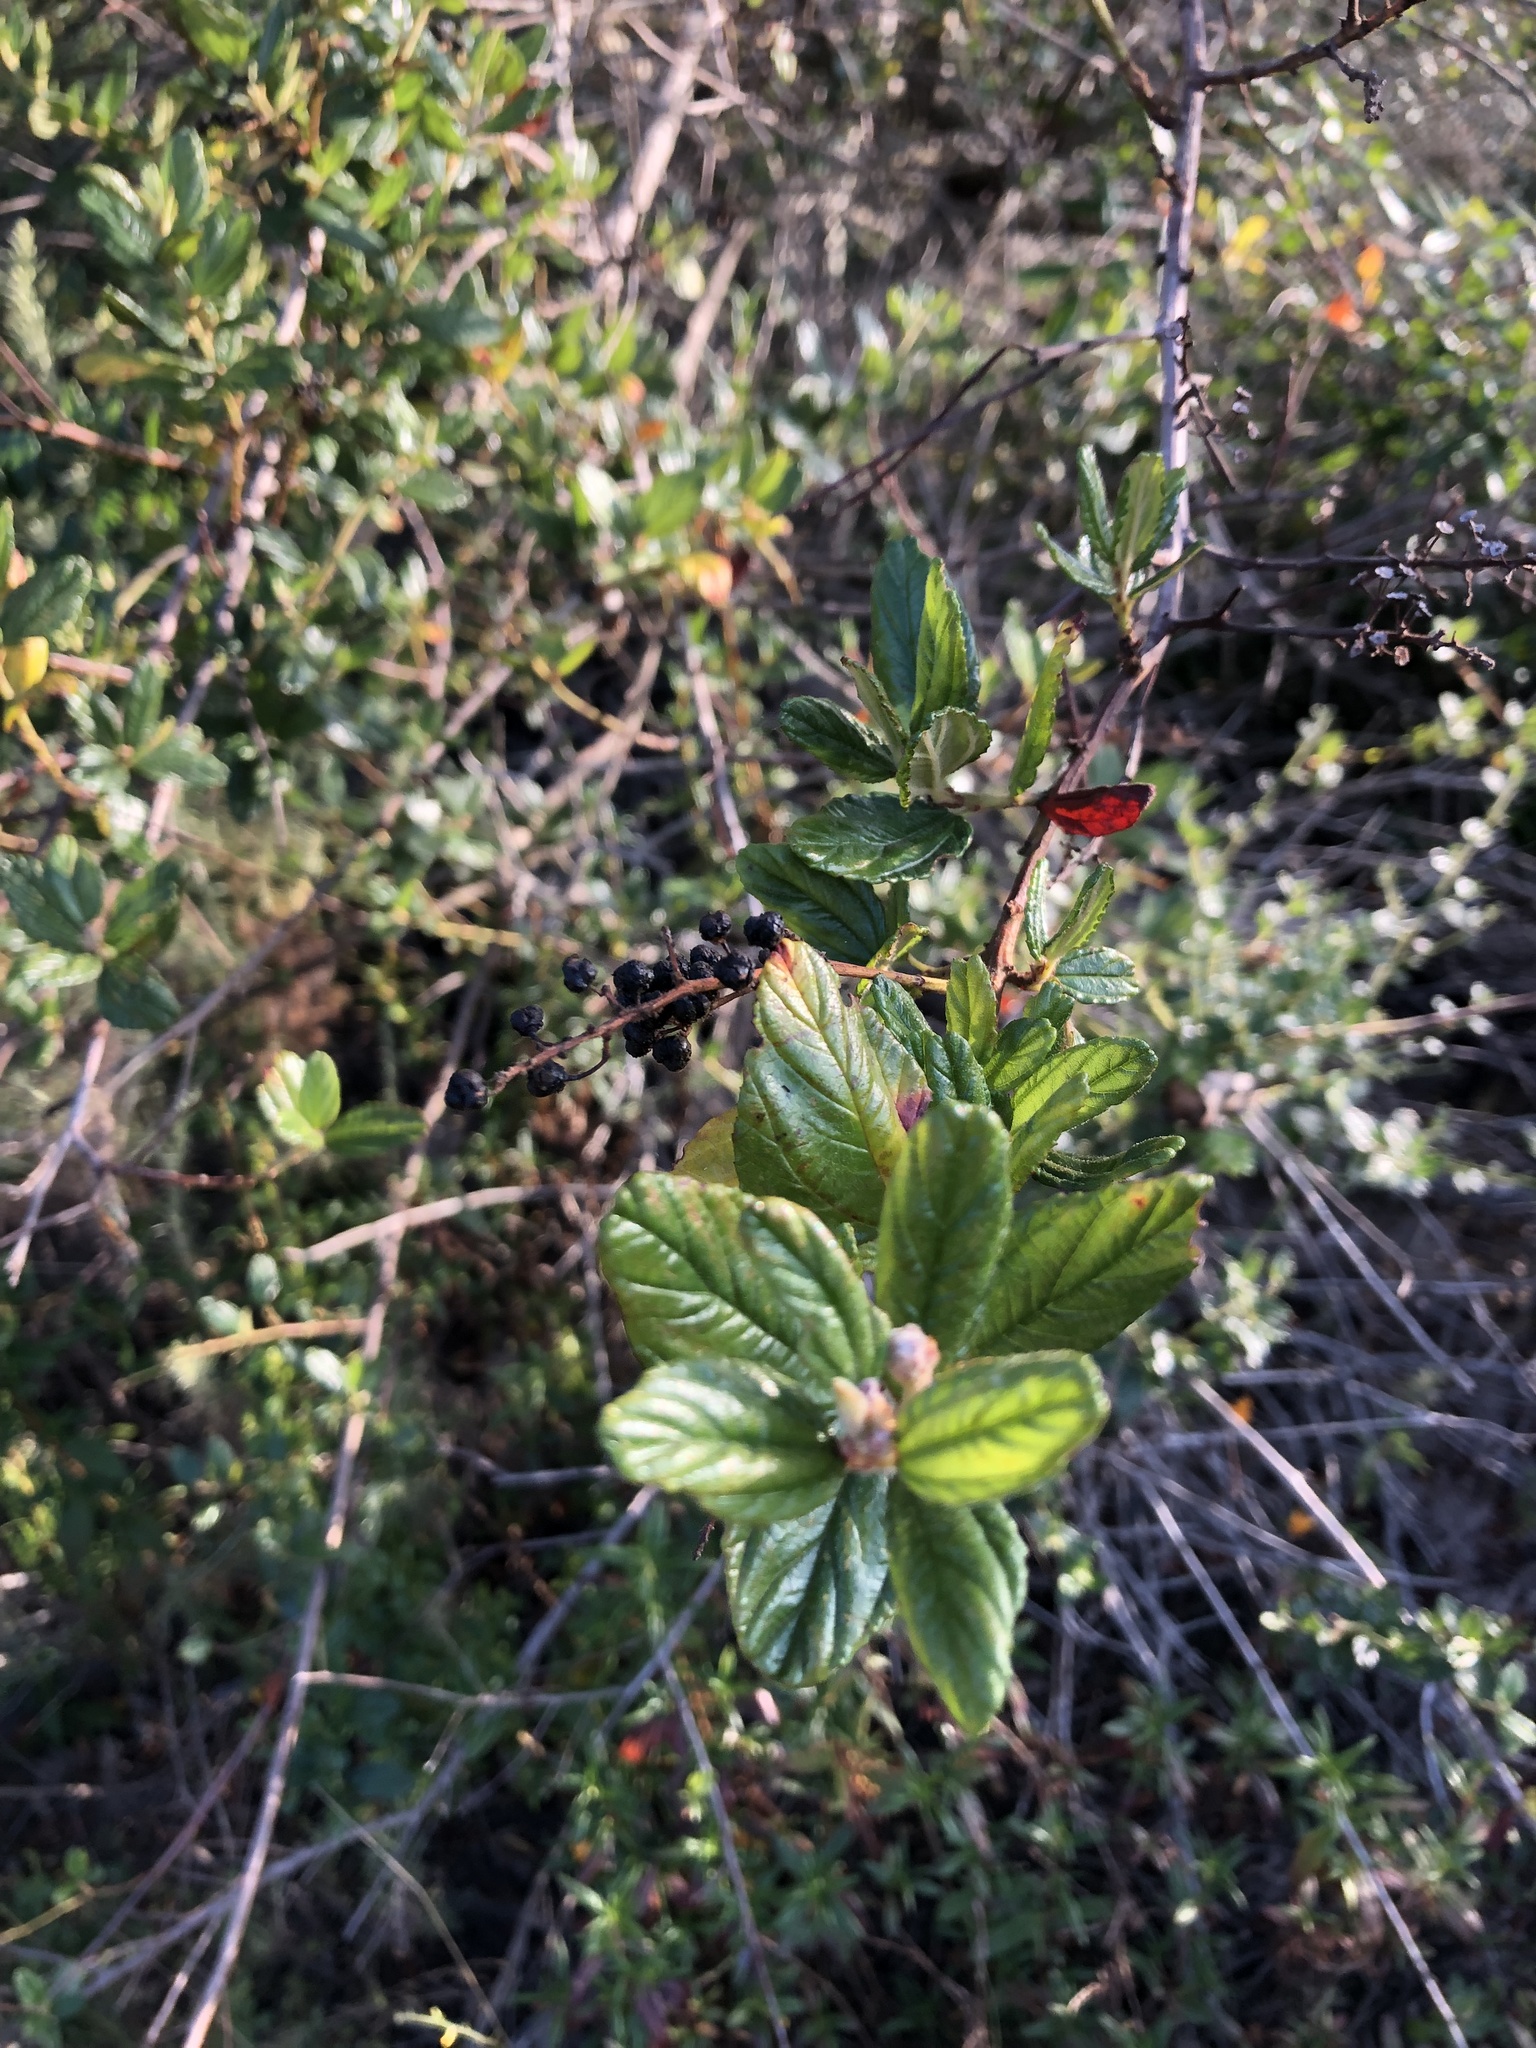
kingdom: Plantae
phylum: Tracheophyta
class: Magnoliopsida
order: Rosales
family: Rhamnaceae
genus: Ceanothus
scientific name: Ceanothus thyrsiflorus
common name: California-lilac
